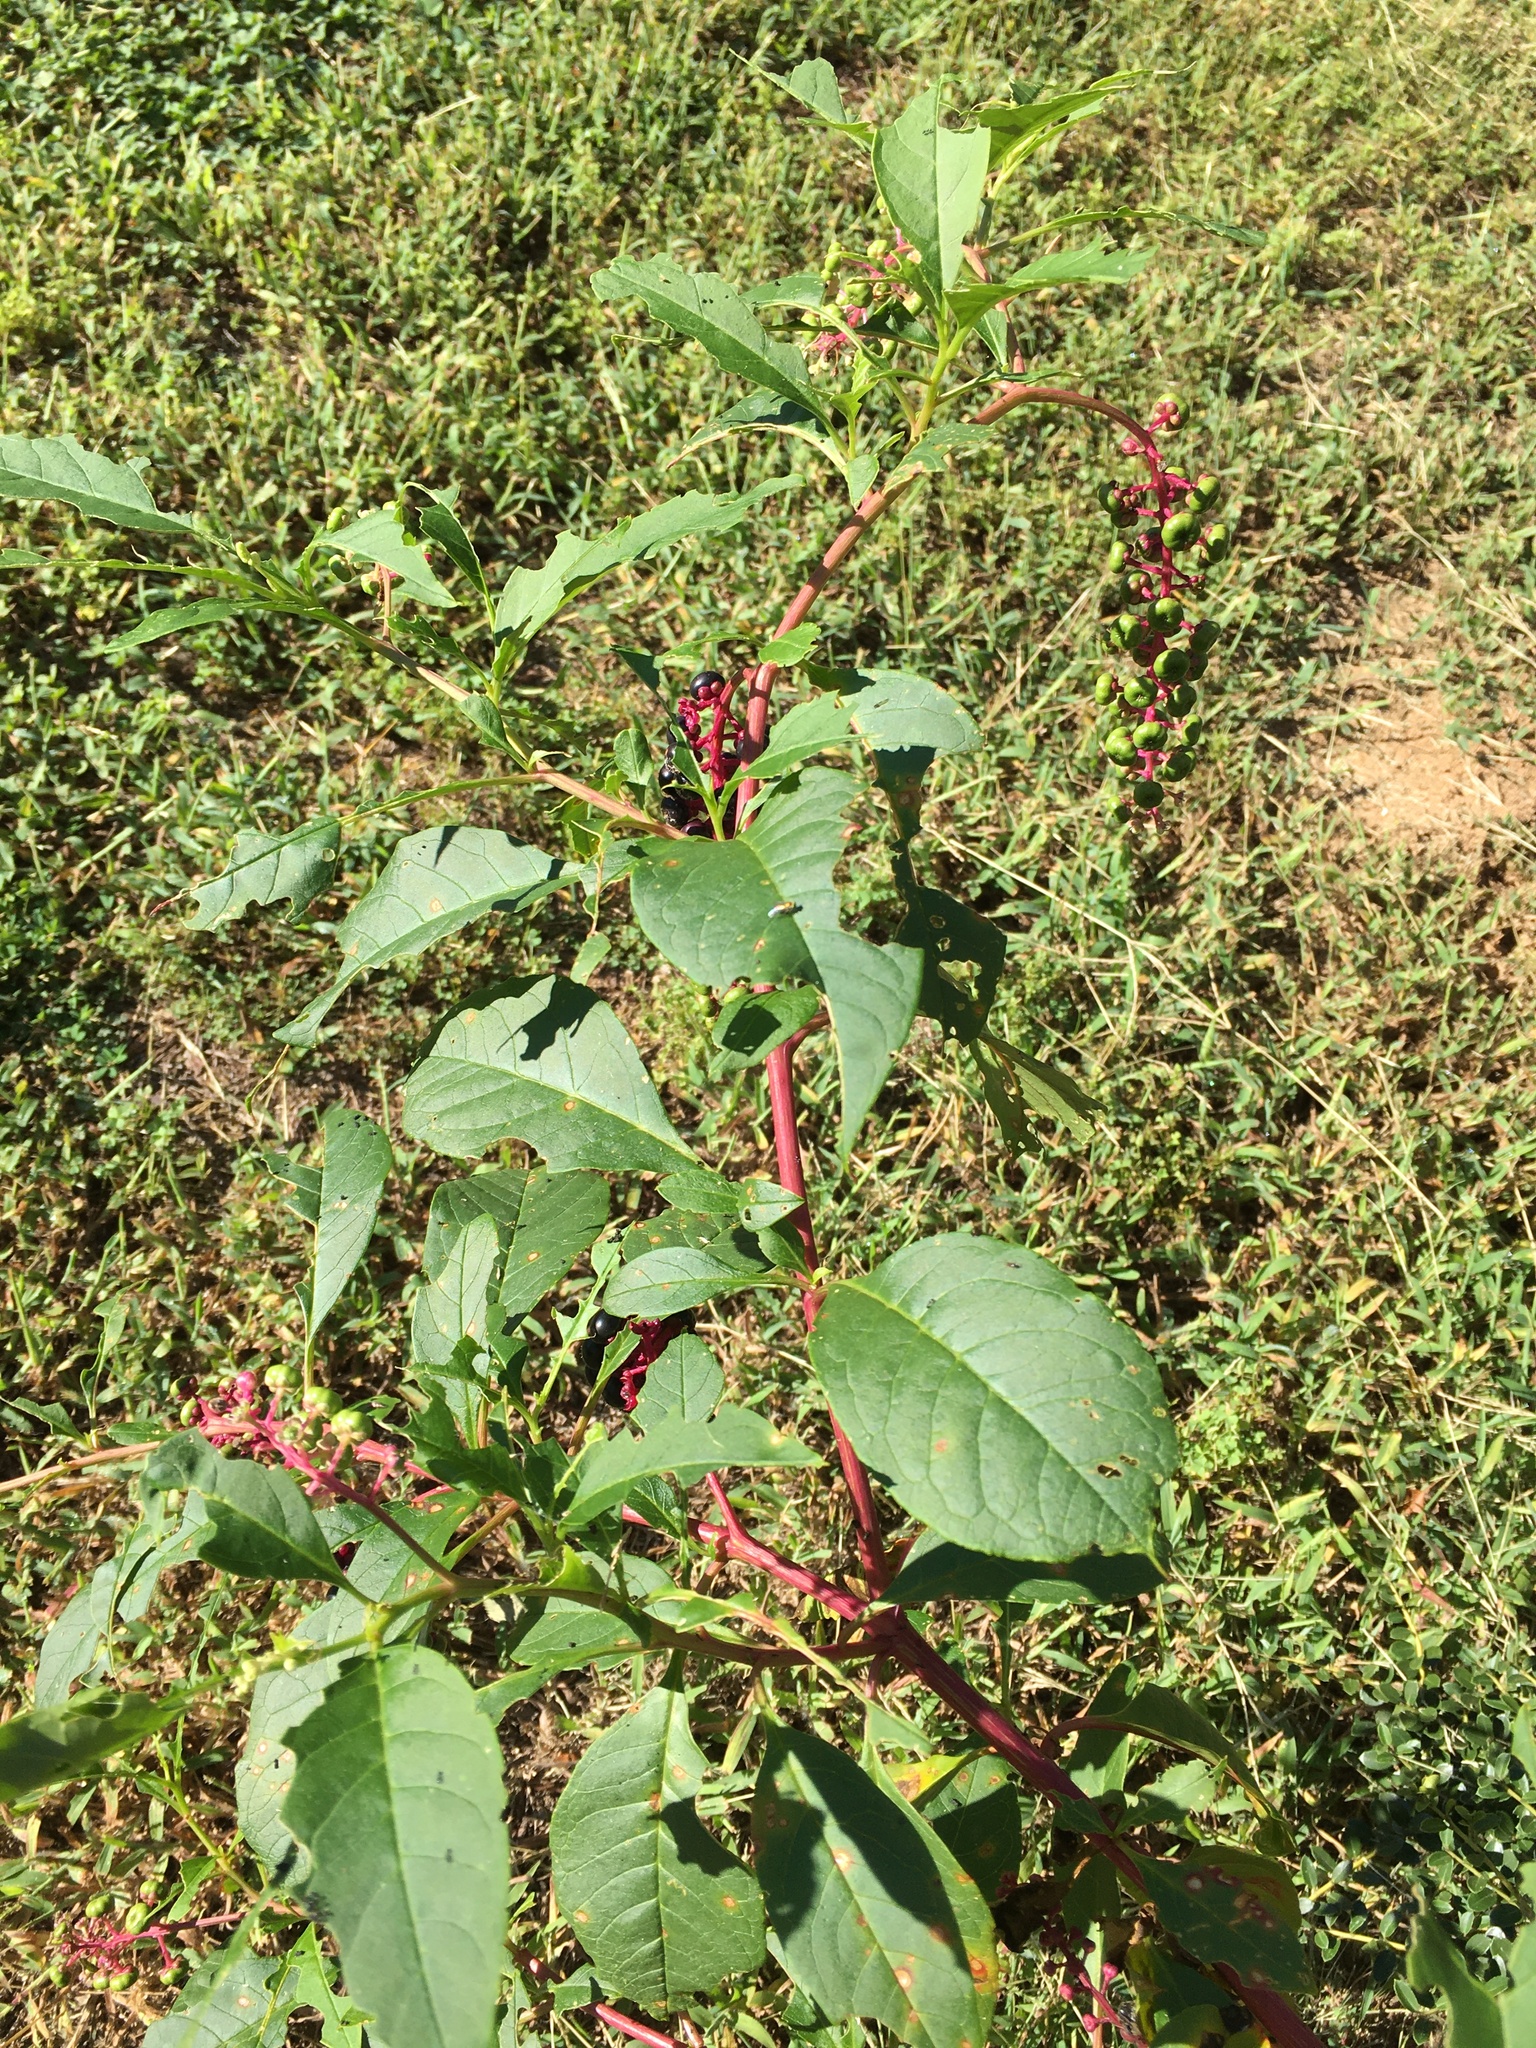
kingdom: Plantae
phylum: Tracheophyta
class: Magnoliopsida
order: Caryophyllales
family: Phytolaccaceae
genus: Phytolacca
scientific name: Phytolacca americana
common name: American pokeweed
